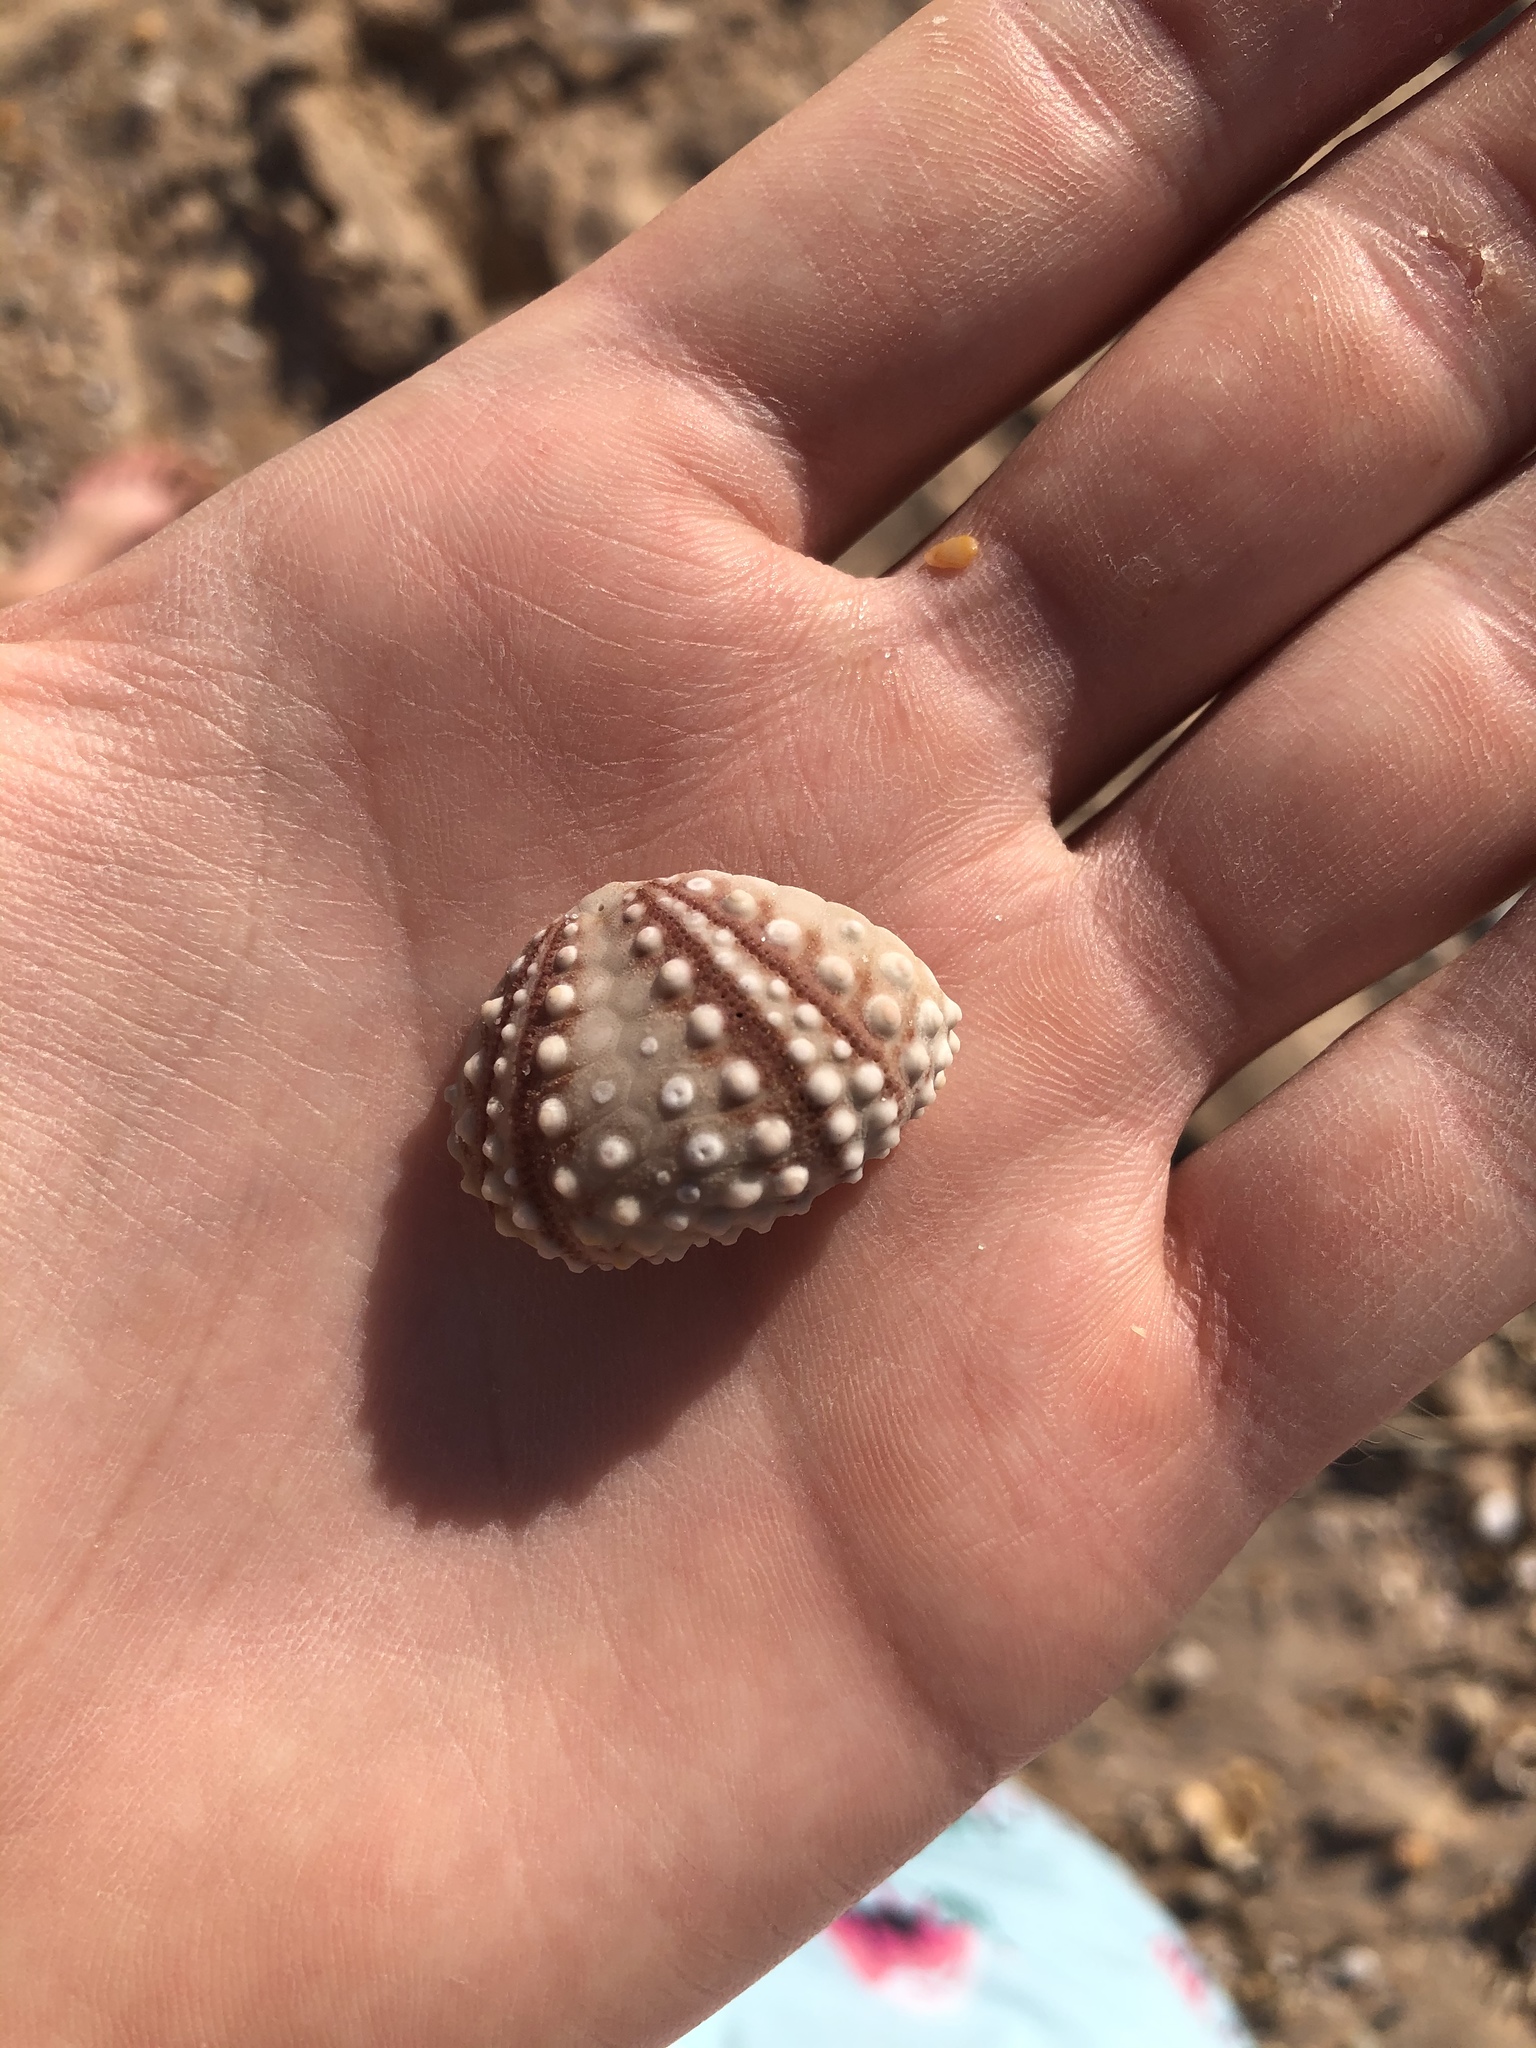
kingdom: Animalia
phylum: Echinodermata
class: Echinoidea
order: Arbacioida
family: Arbaciidae
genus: Arbacia
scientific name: Arbacia punctulata
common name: Purple-spined sea urchin
